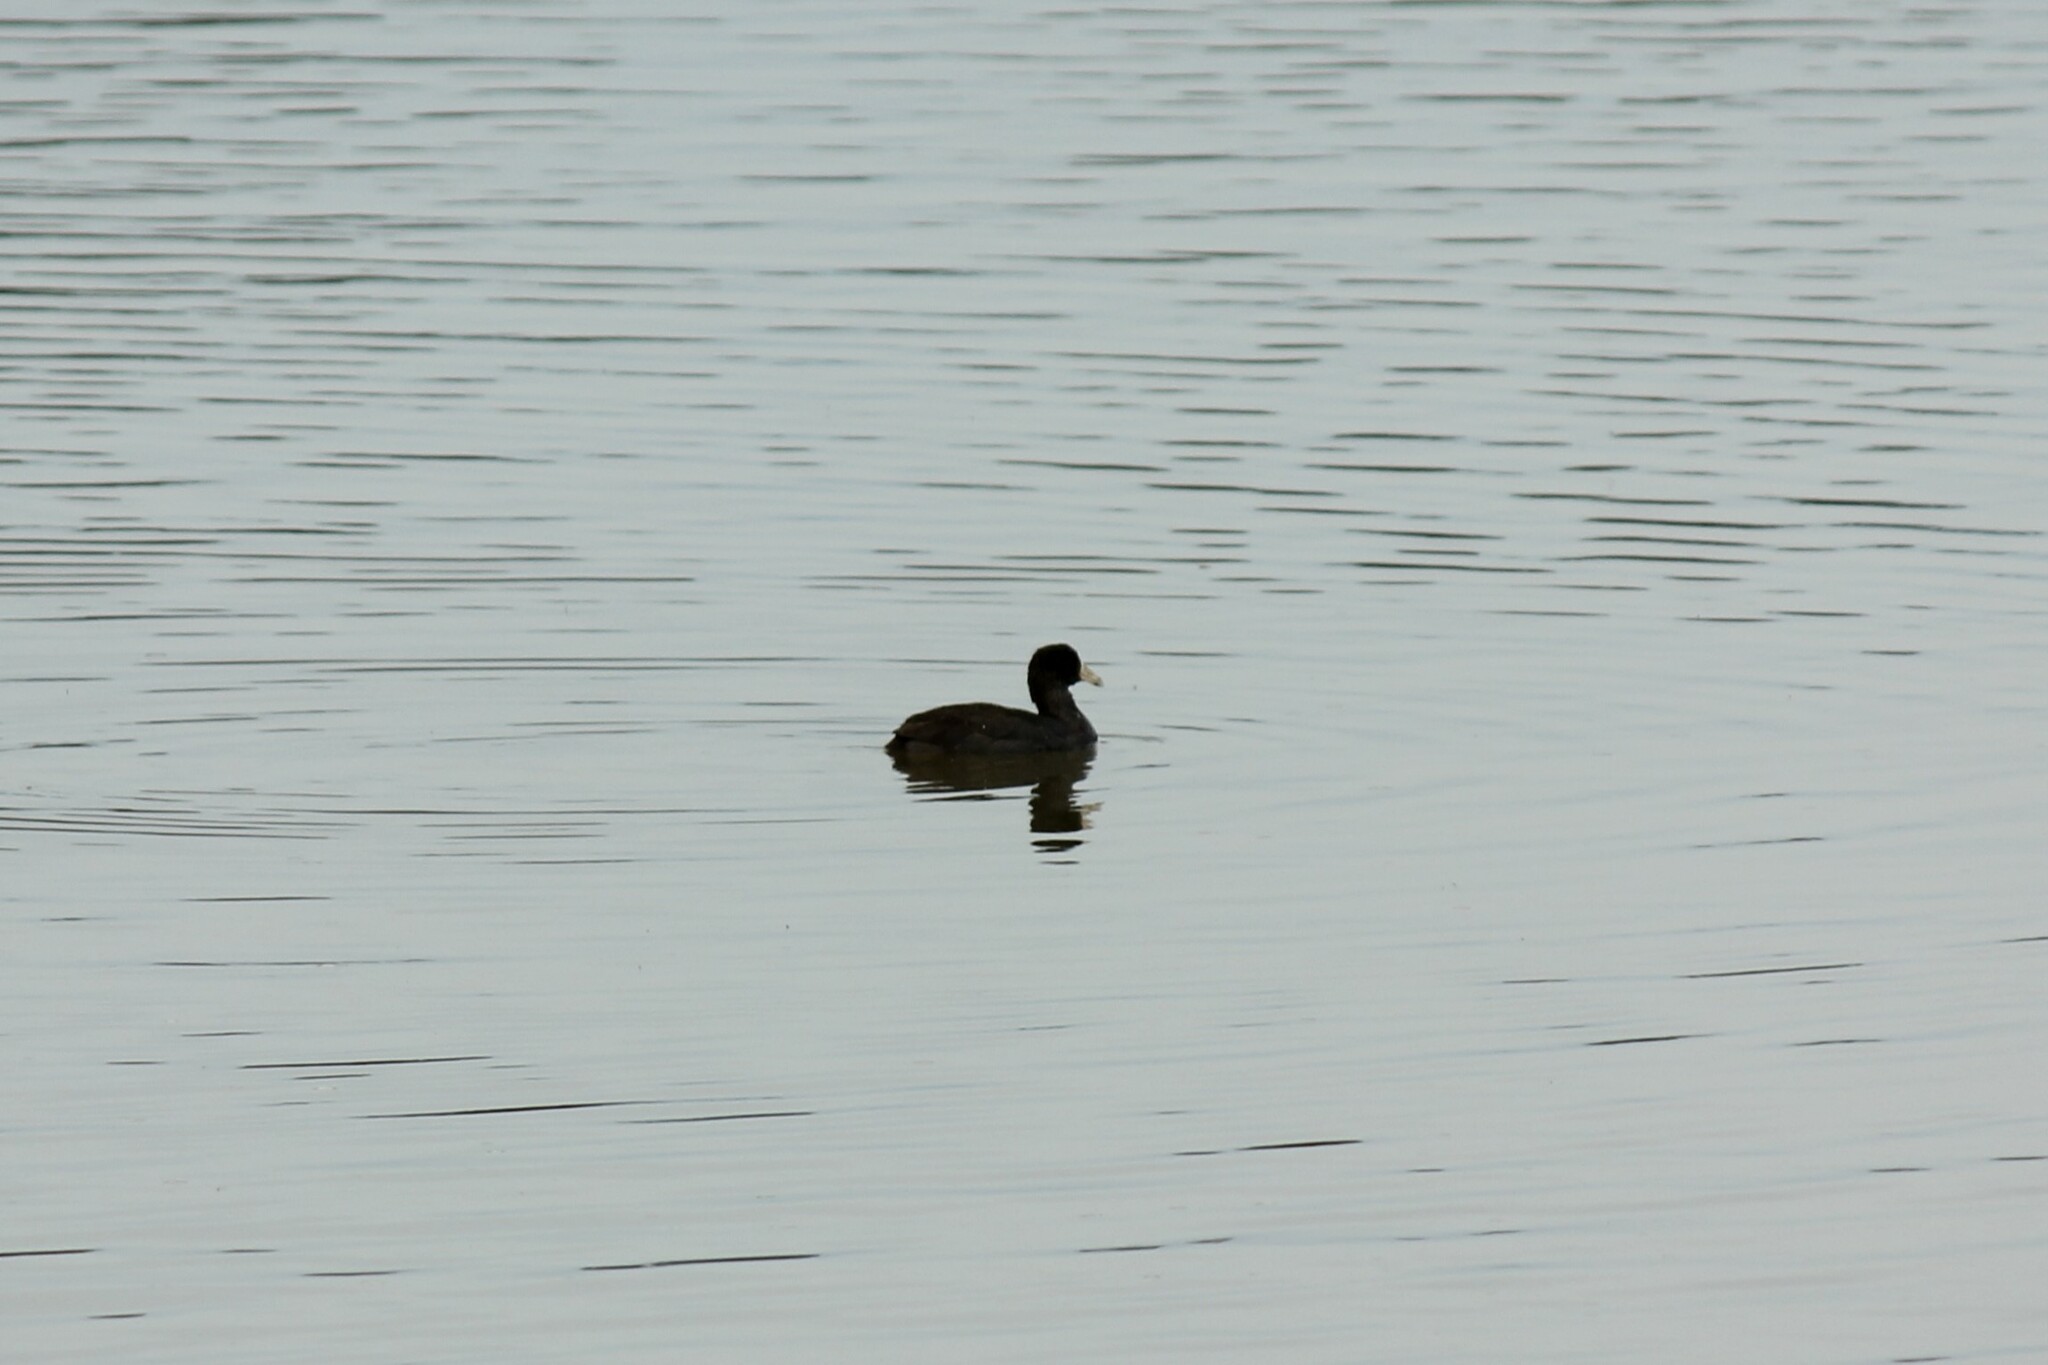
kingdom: Animalia
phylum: Chordata
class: Aves
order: Gruiformes
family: Rallidae
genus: Fulica
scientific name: Fulica americana
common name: American coot
